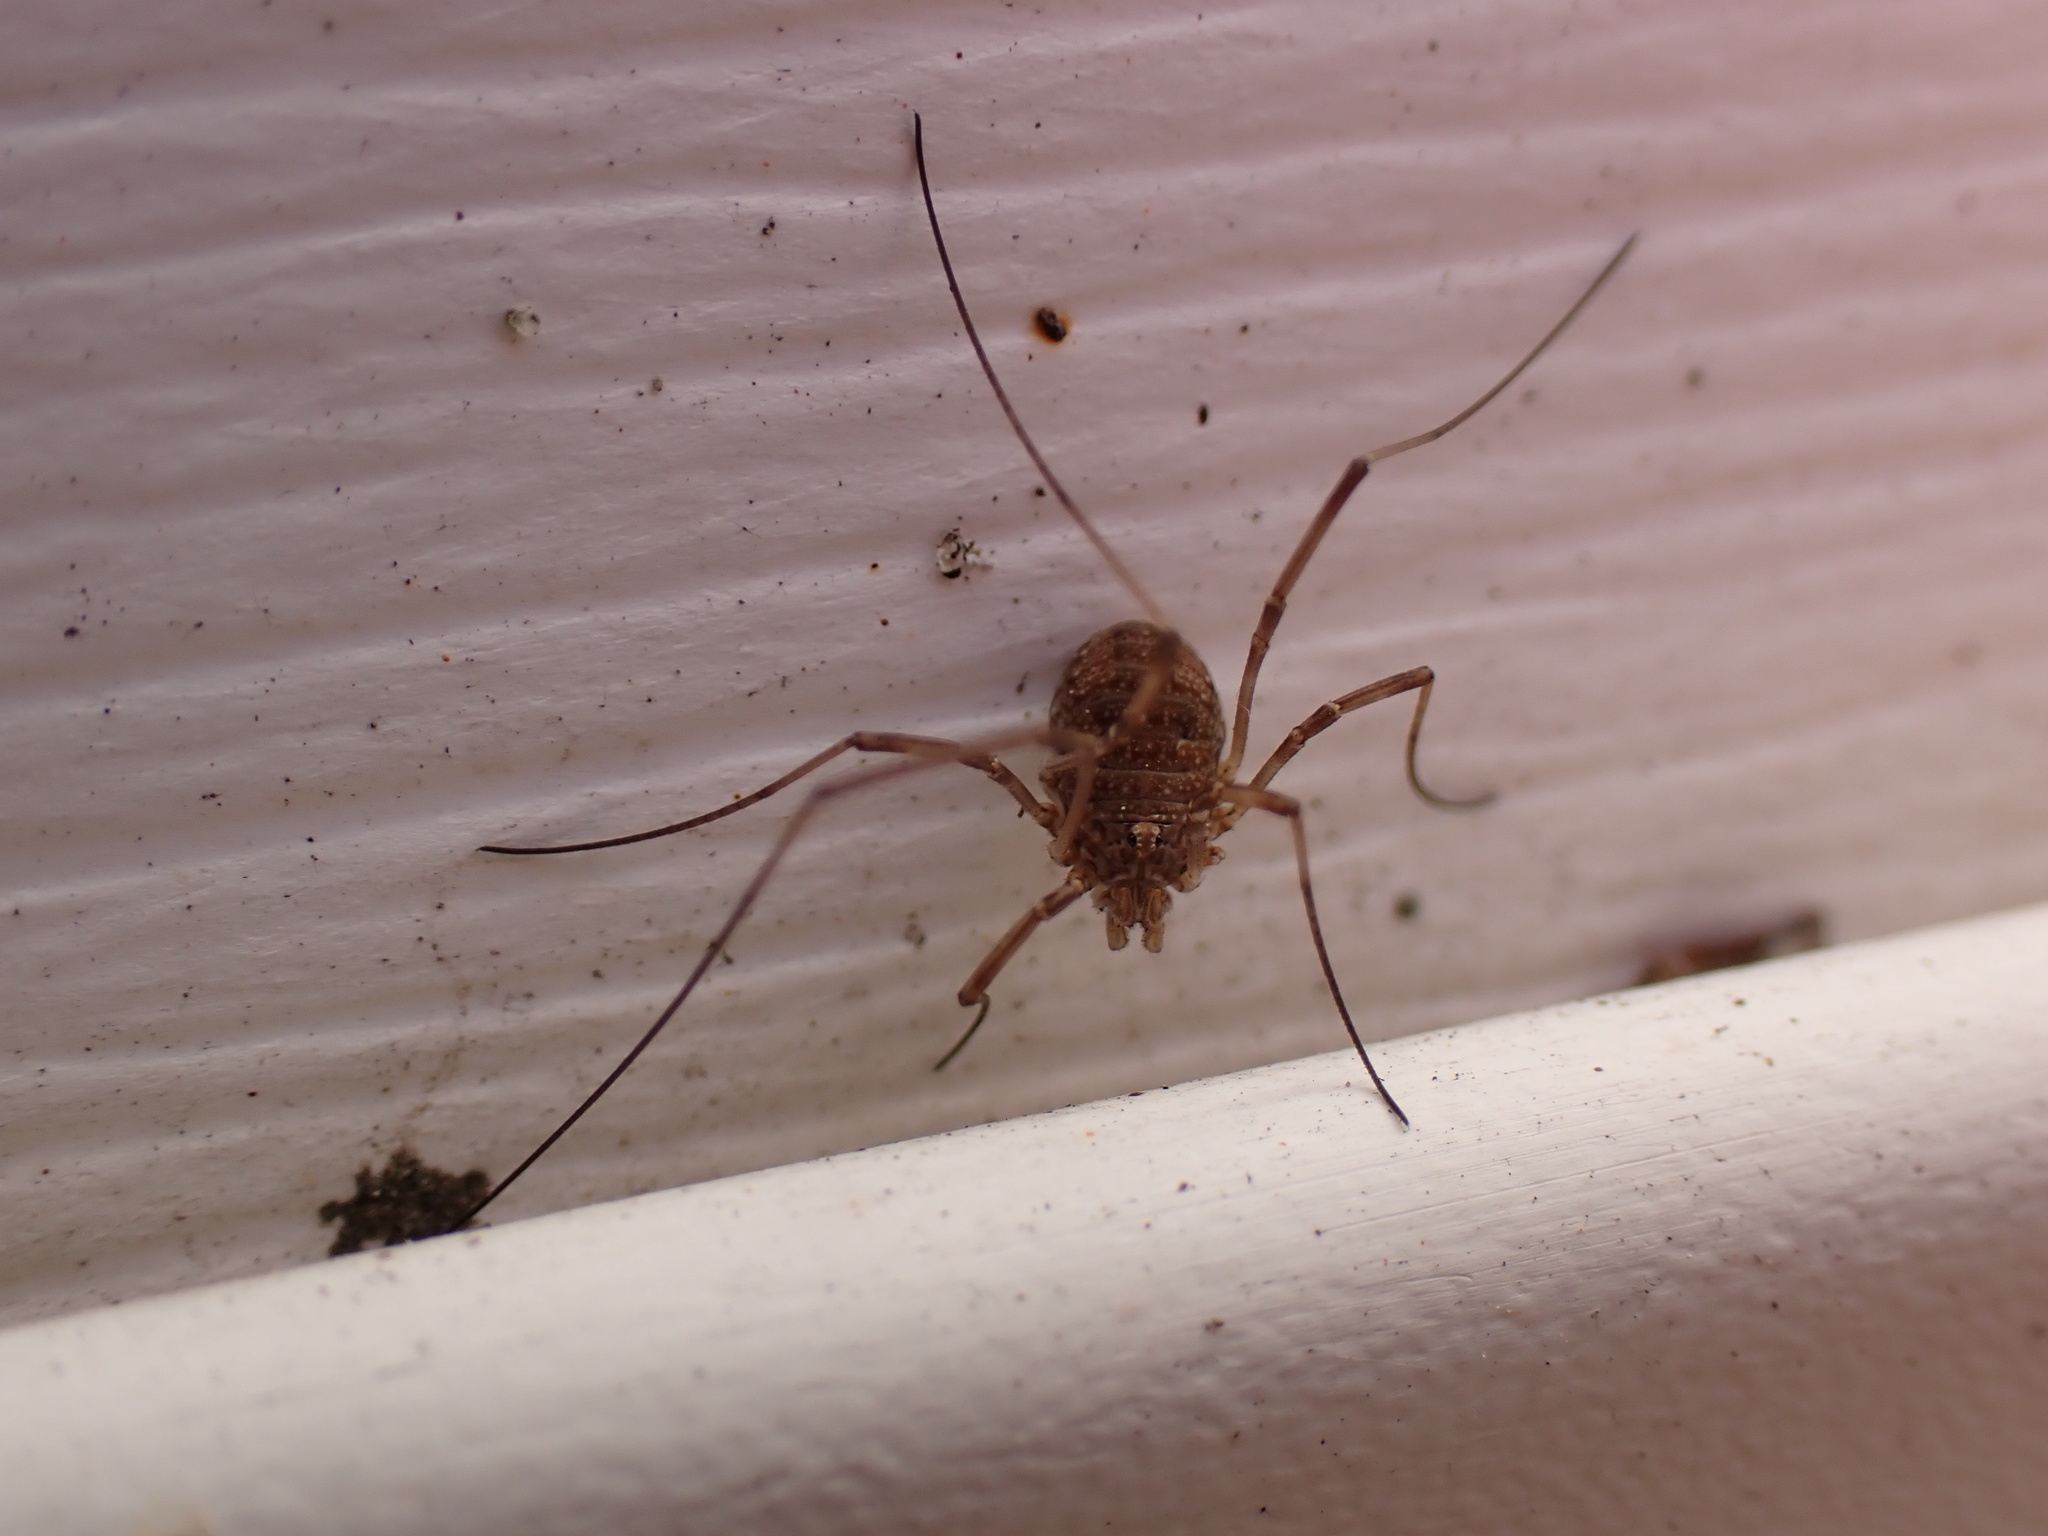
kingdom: Animalia
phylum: Arthropoda
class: Arachnida
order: Opiliones
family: Phalangiidae
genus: Phalangium
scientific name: Phalangium opilio
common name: Daddy longleg
